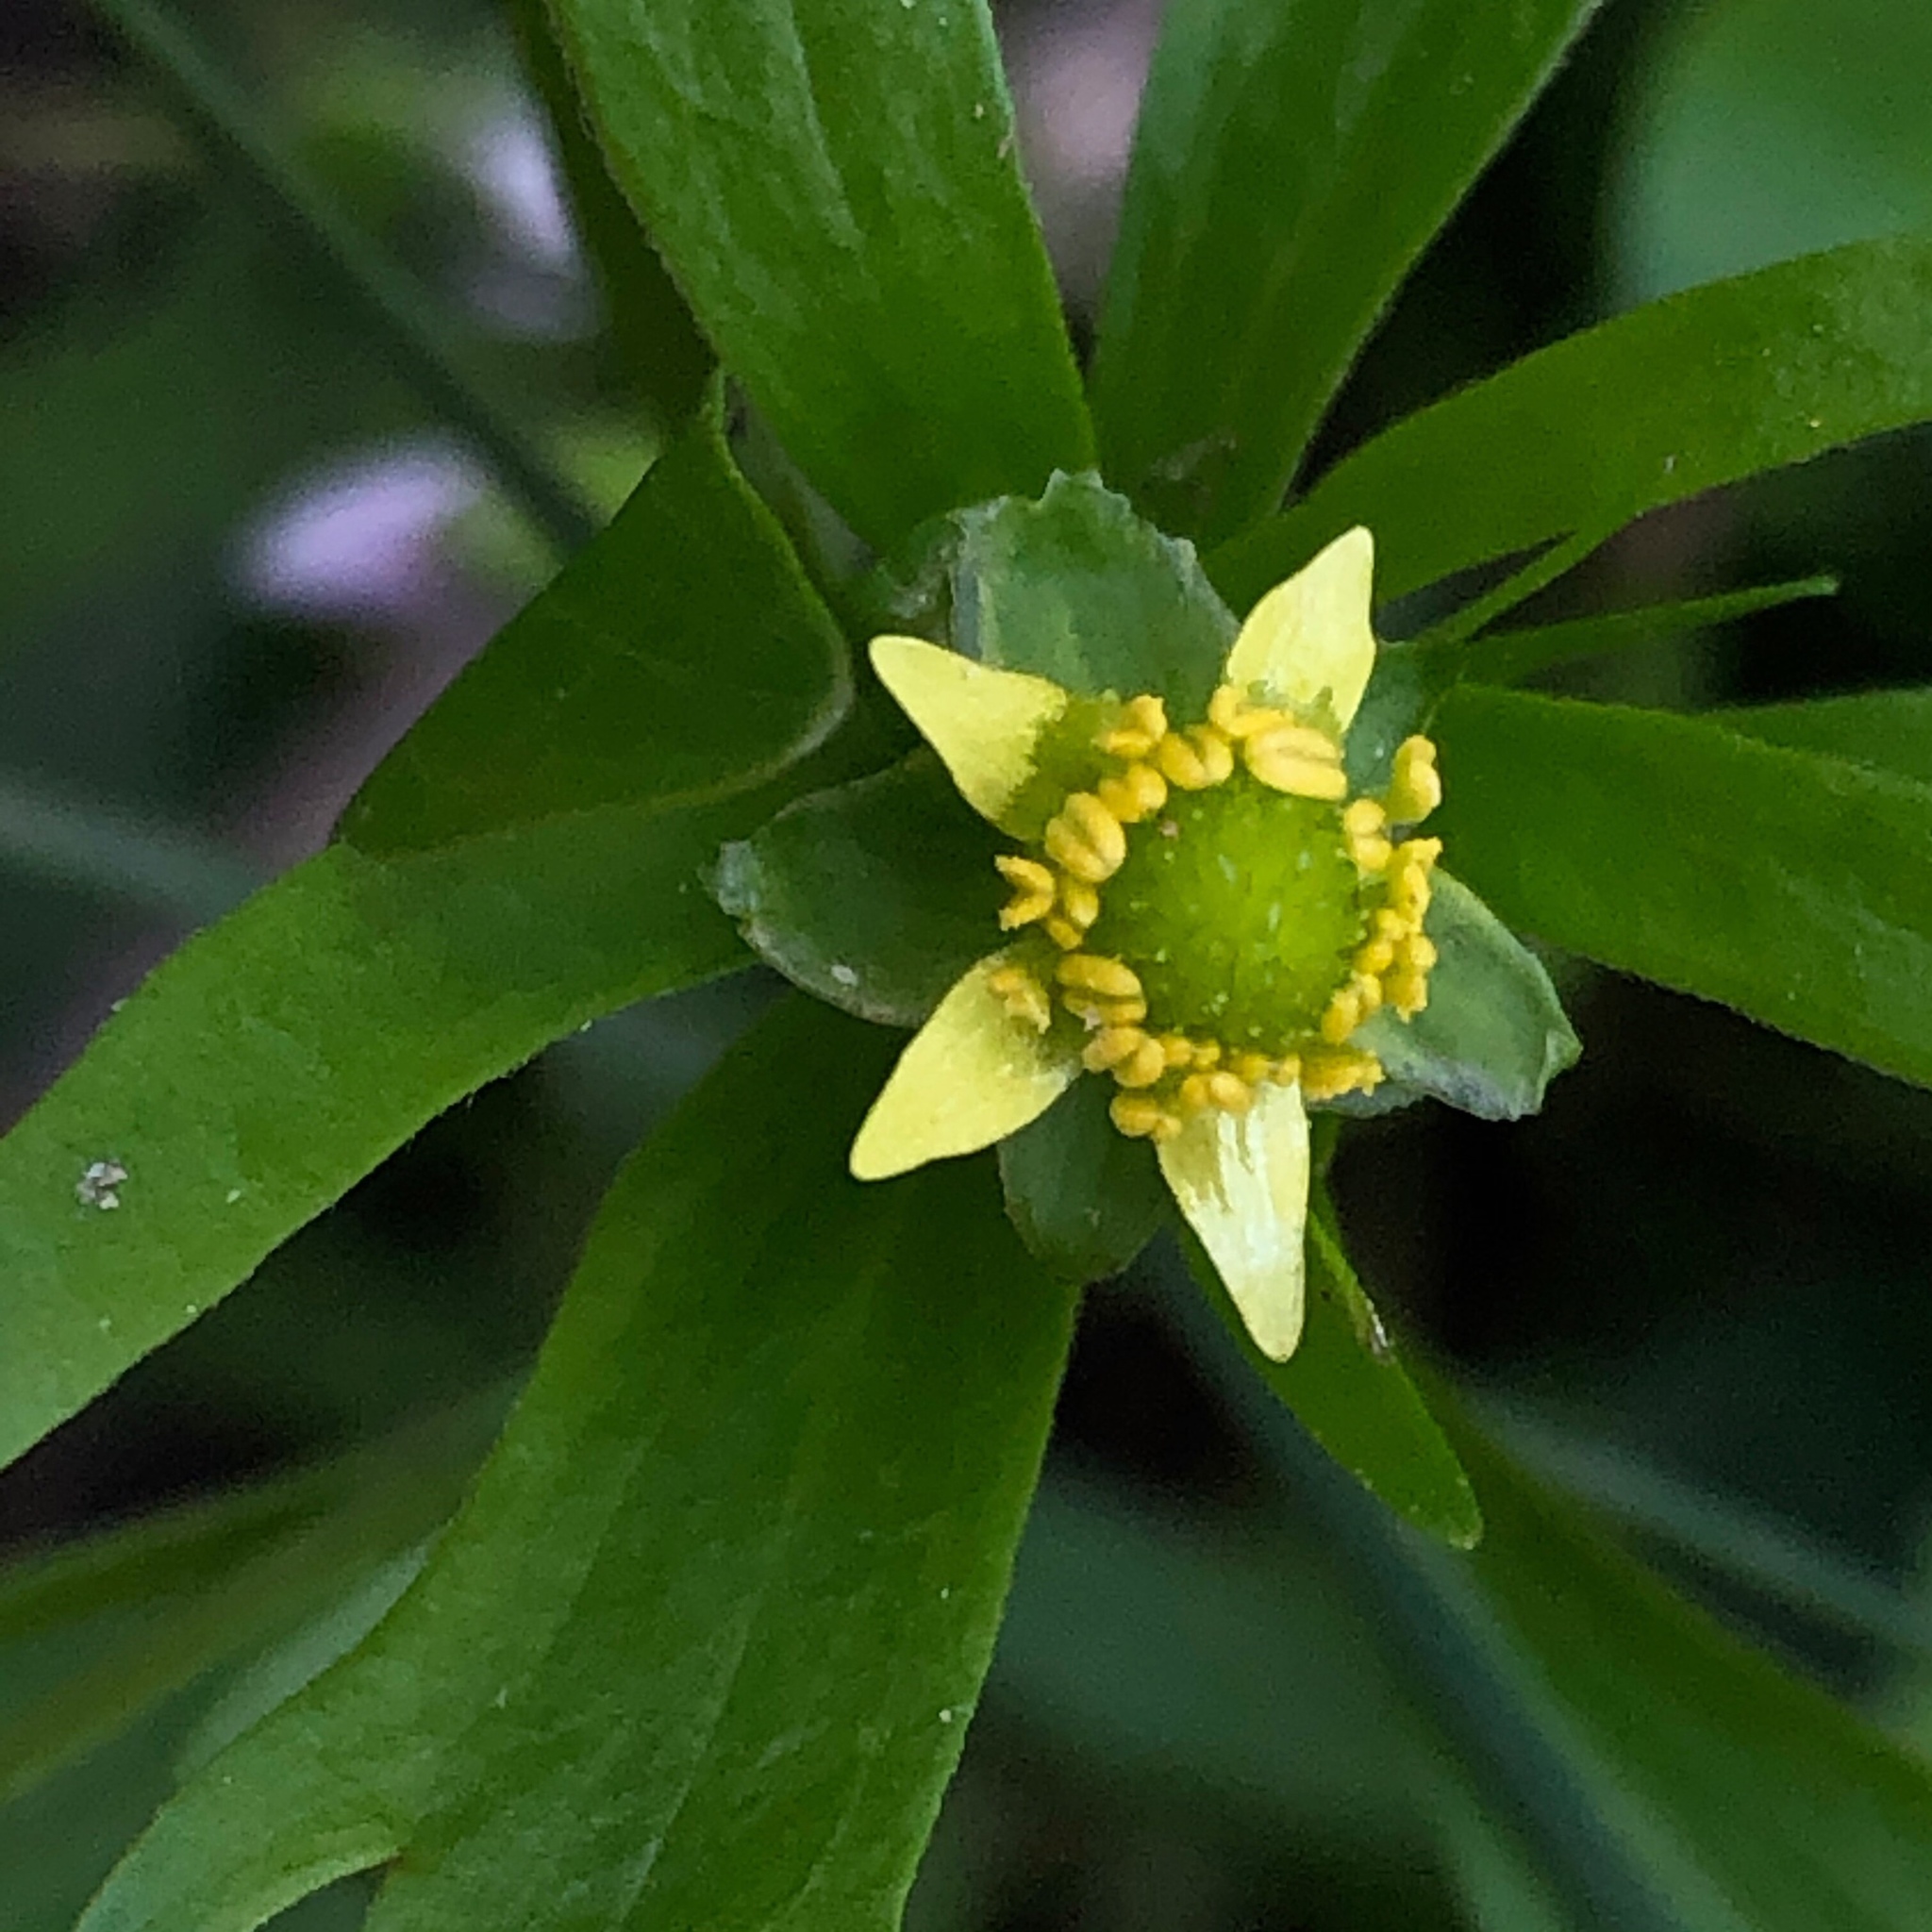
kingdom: Plantae
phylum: Tracheophyta
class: Magnoliopsida
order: Ranunculales
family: Ranunculaceae
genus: Ranunculus
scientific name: Ranunculus abortivus
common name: Early wood buttercup
